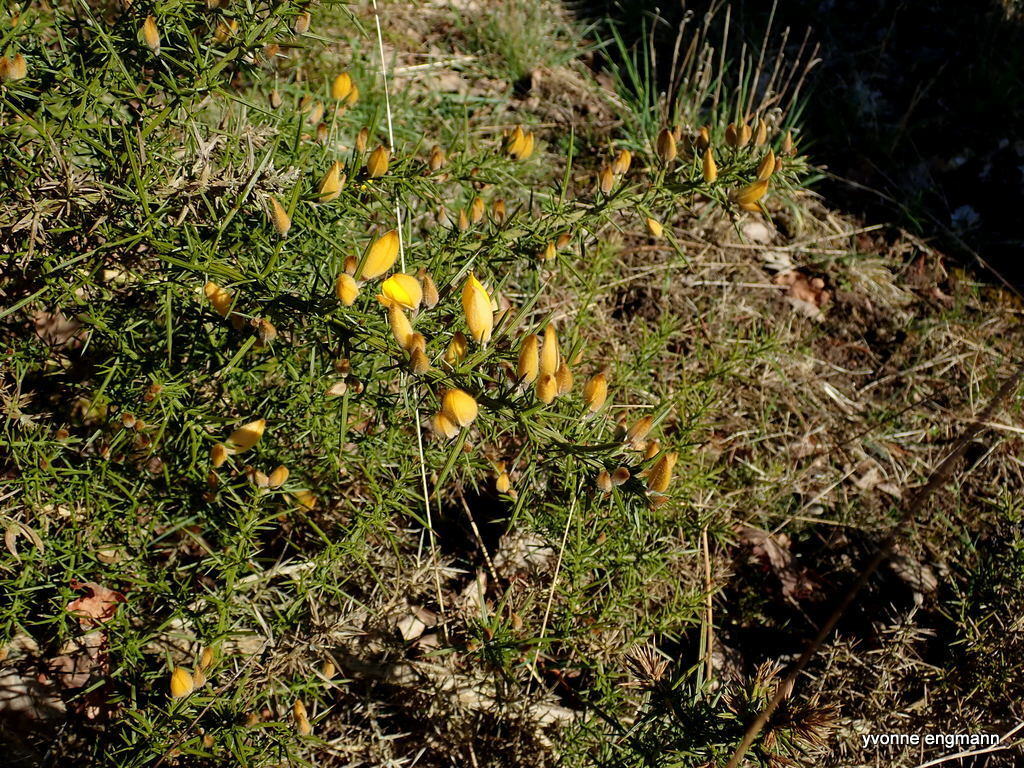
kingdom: Plantae
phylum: Tracheophyta
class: Magnoliopsida
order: Fabales
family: Fabaceae
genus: Ulex
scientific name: Ulex europaeus
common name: Common gorse
